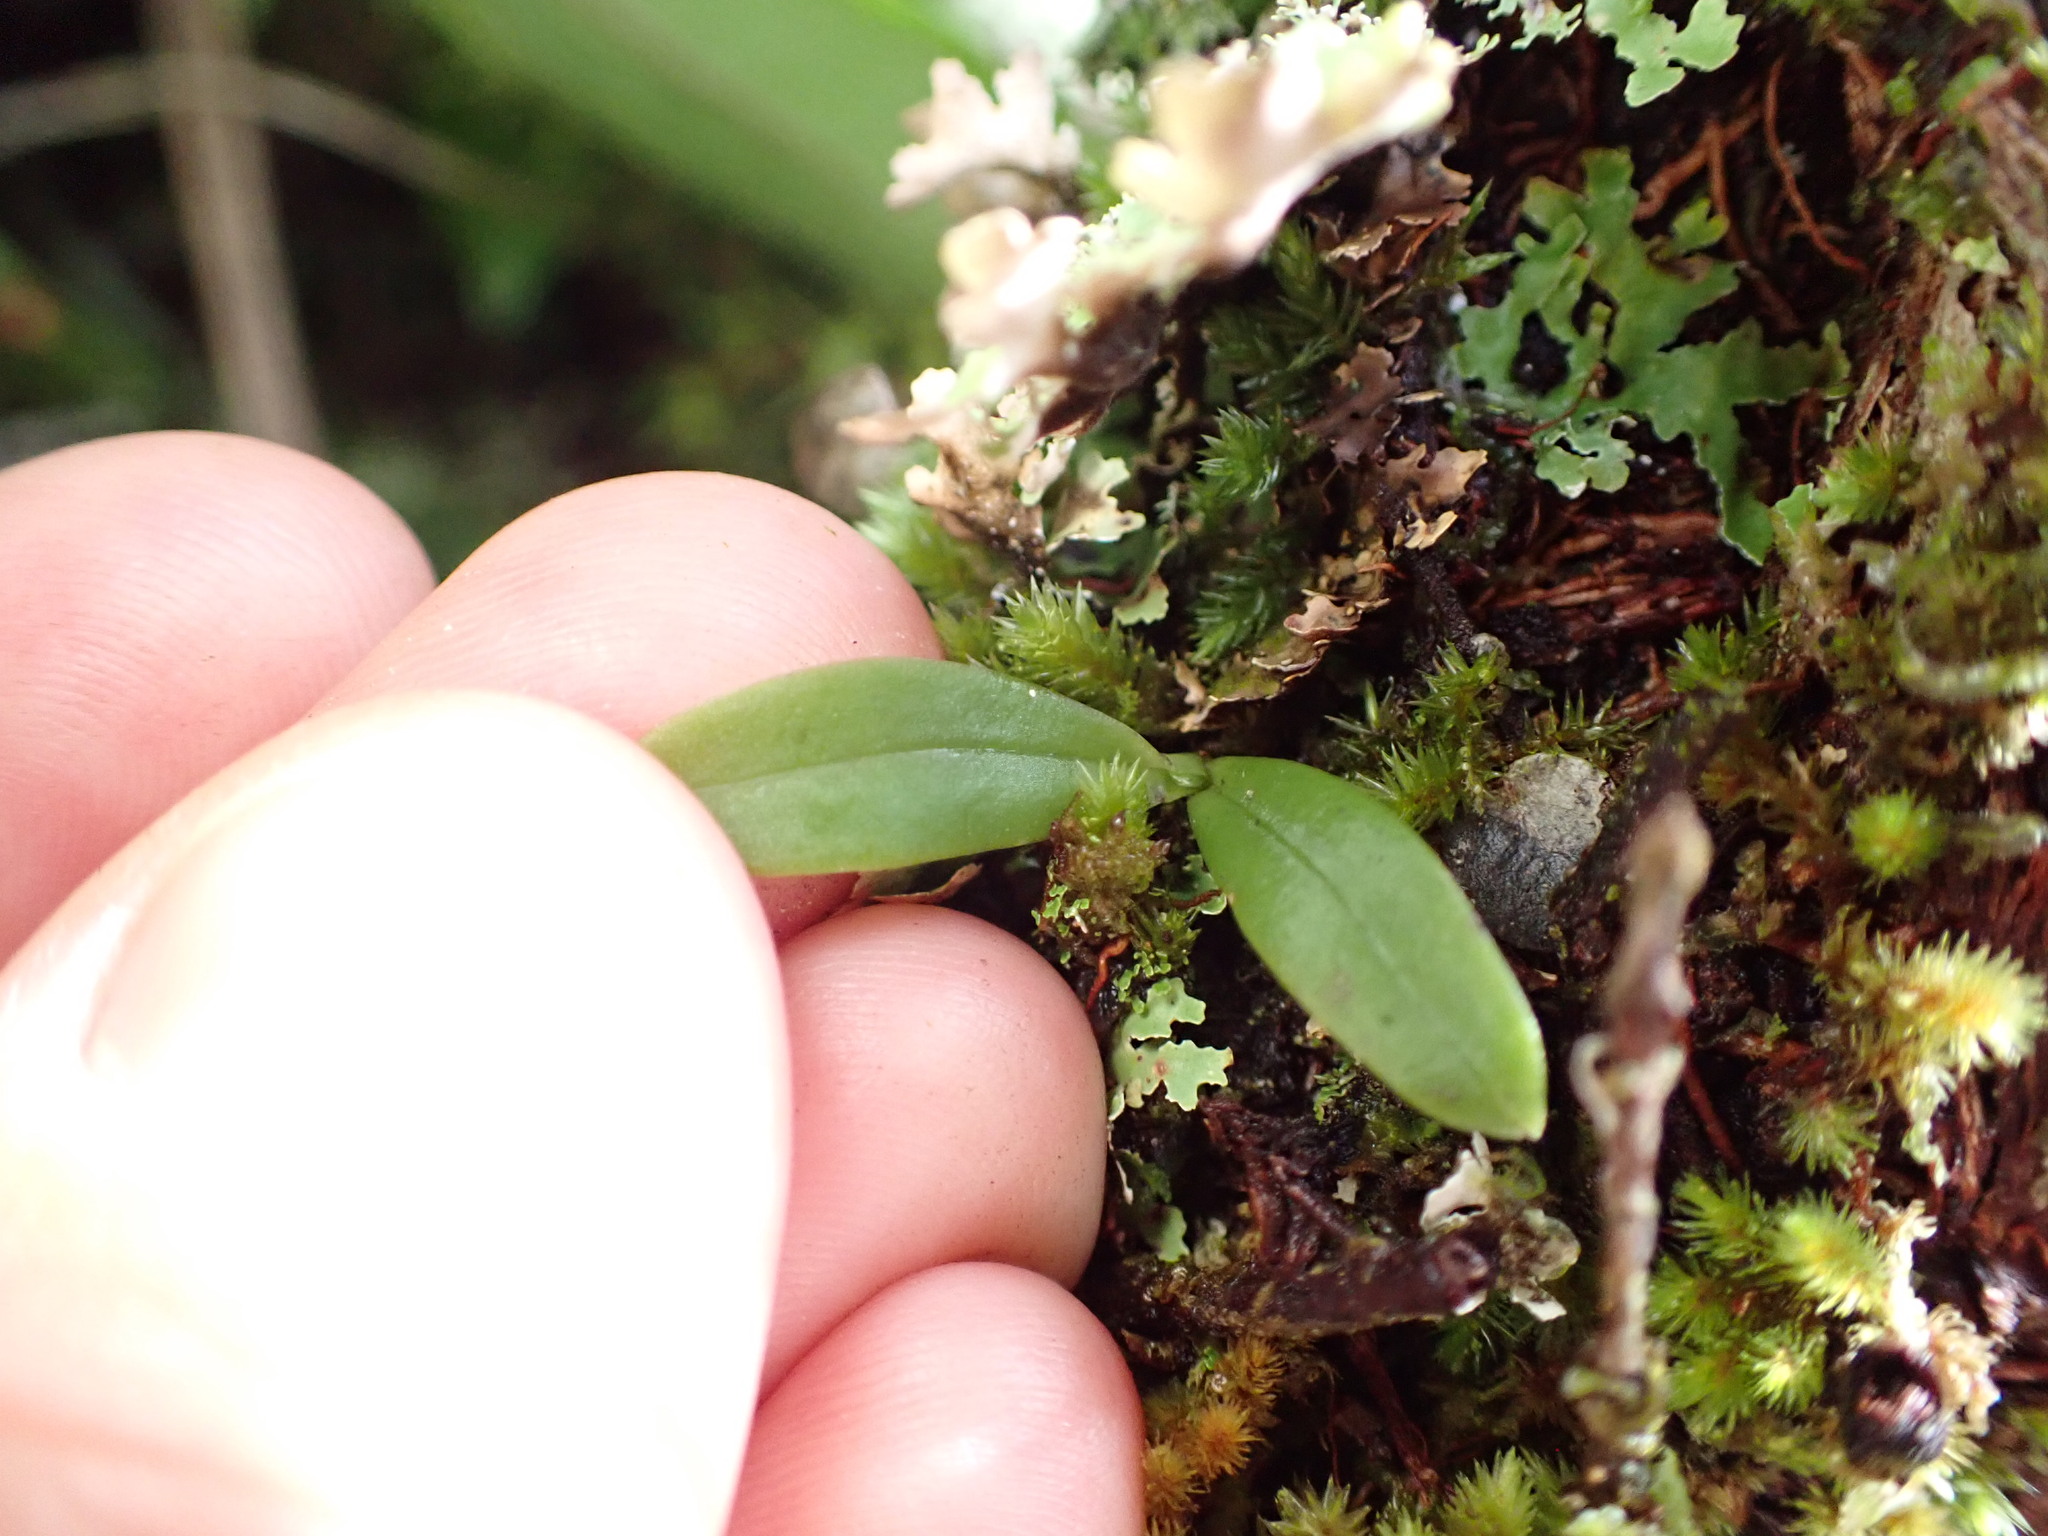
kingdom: Plantae
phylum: Tracheophyta
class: Liliopsida
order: Asparagales
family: Orchidaceae
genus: Drymoanthus
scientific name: Drymoanthus adversus
